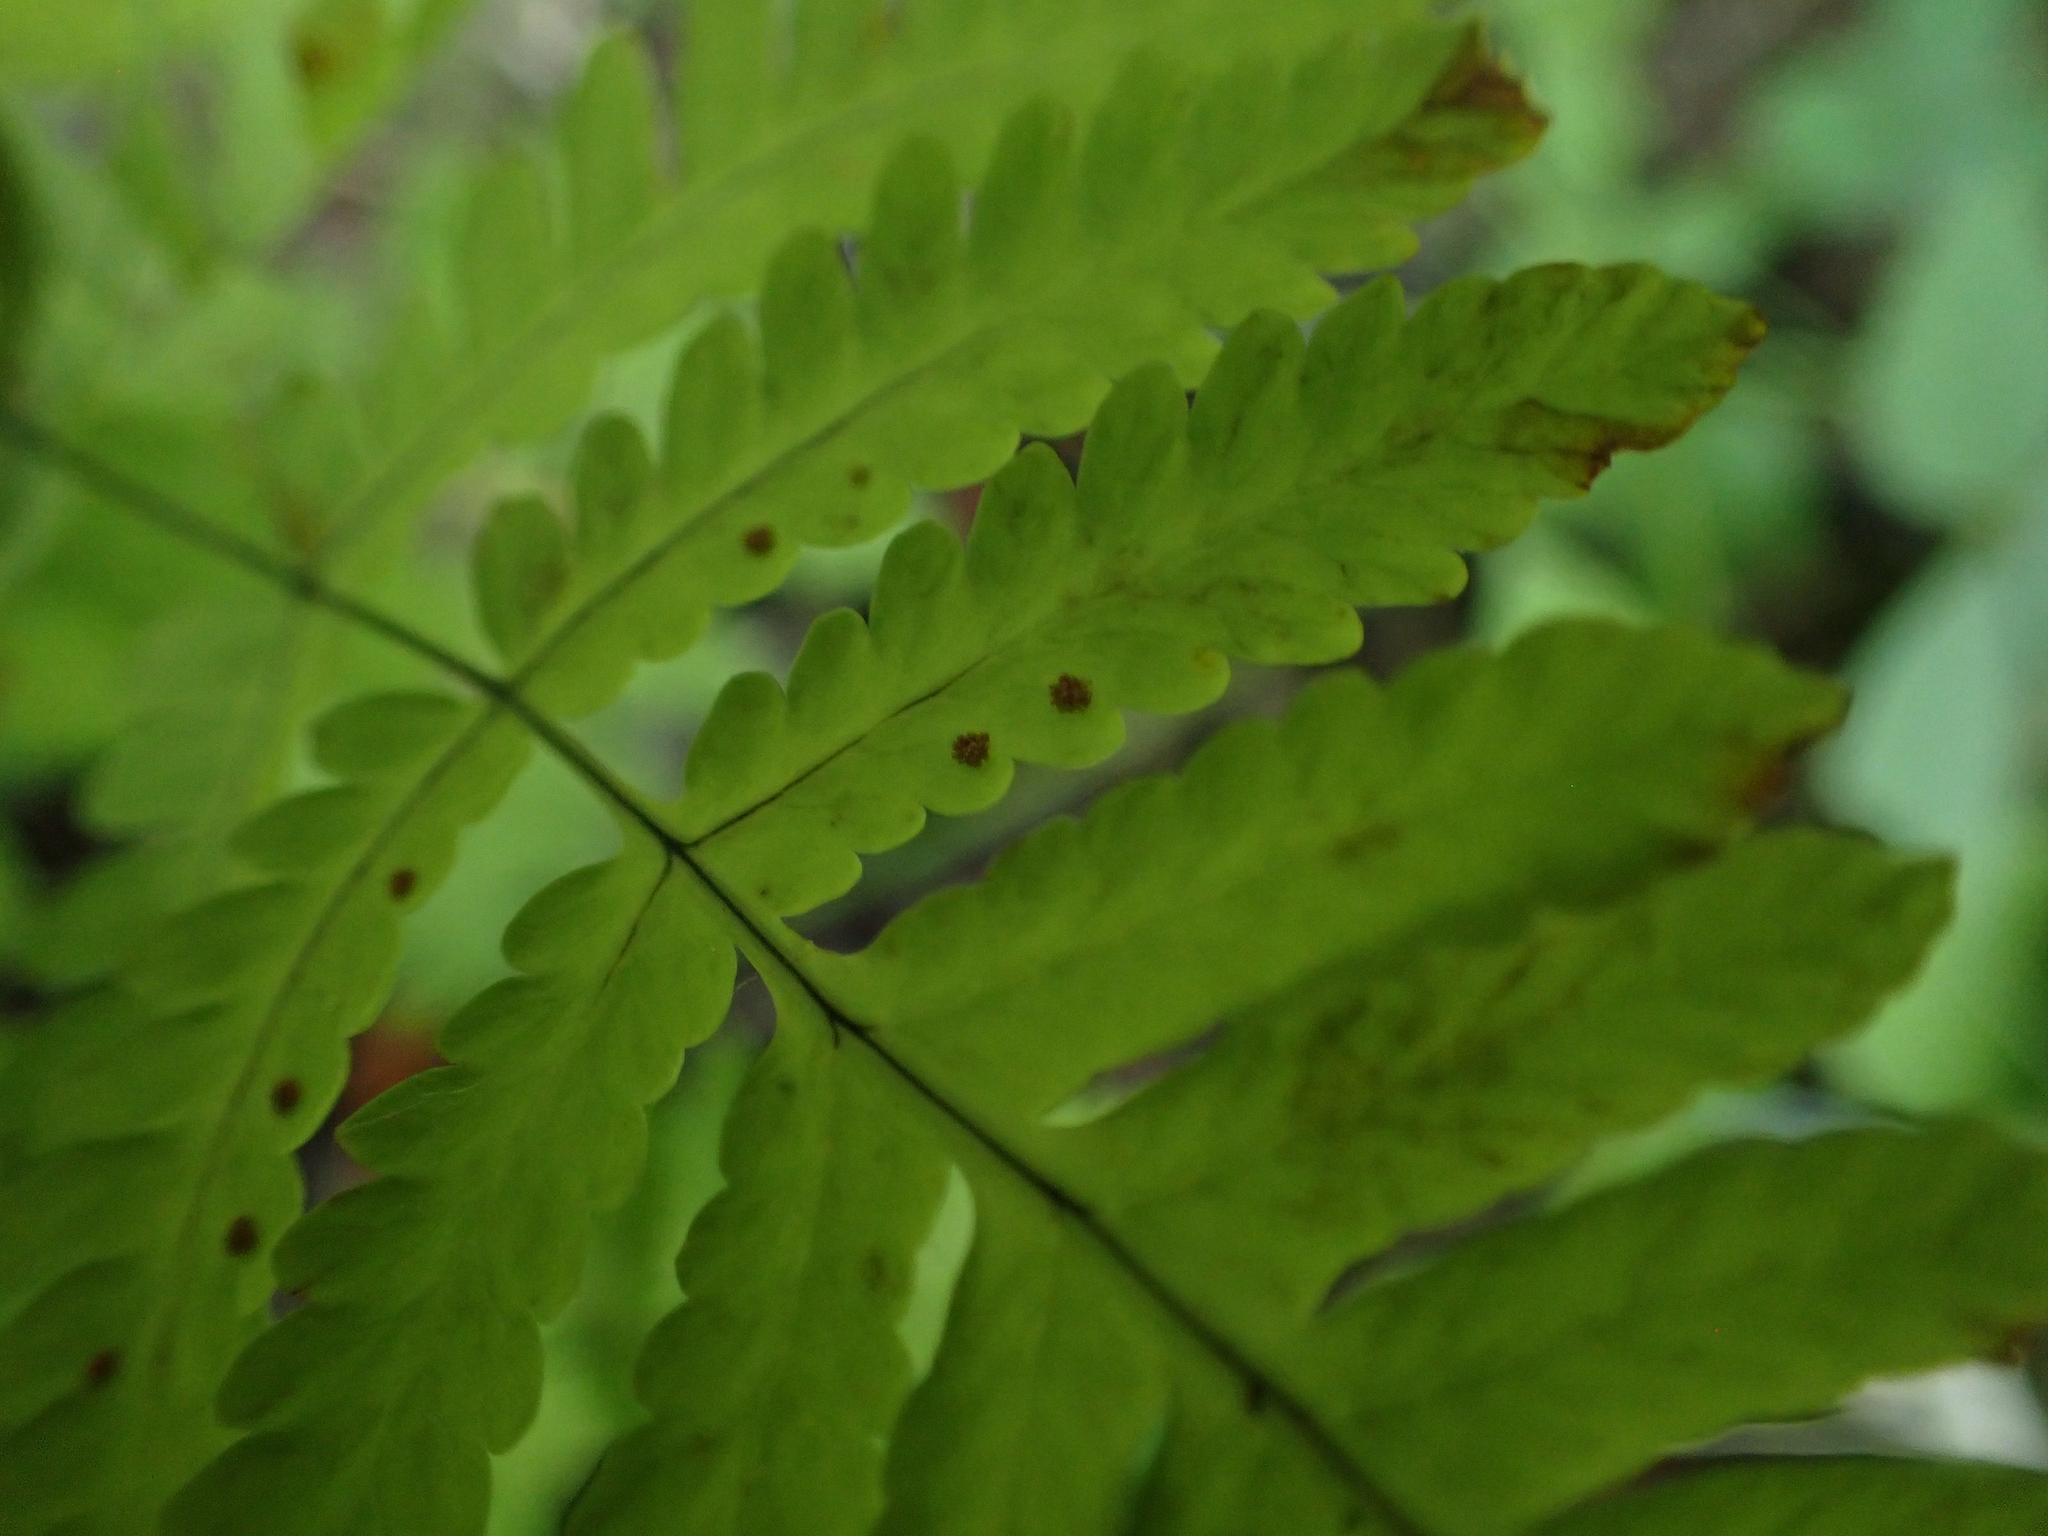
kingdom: Plantae
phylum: Tracheophyta
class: Polypodiopsida
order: Polypodiales
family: Cystopteridaceae
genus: Gymnocarpium
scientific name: Gymnocarpium dryopteris
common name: Oak fern
